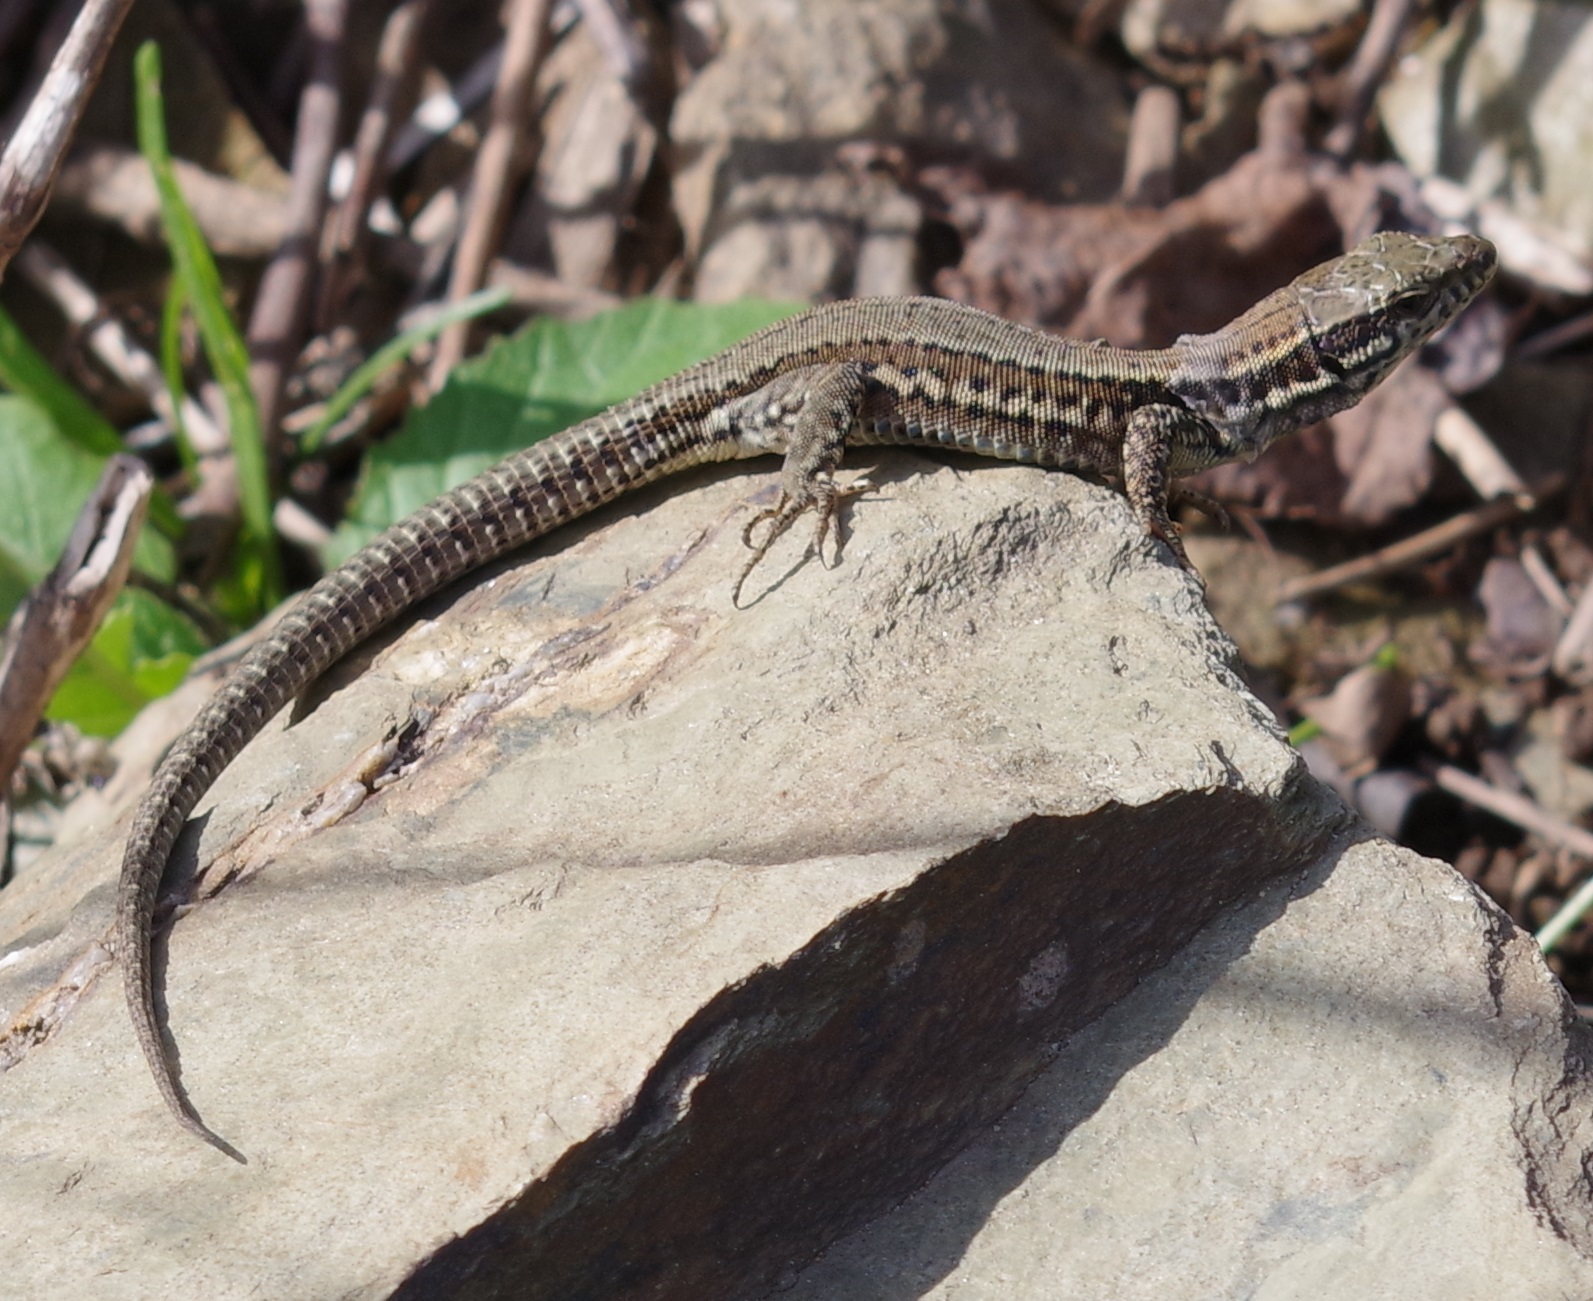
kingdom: Animalia
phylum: Chordata
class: Squamata
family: Lacertidae
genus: Podarcis
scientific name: Podarcis muralis
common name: Common wall lizard
